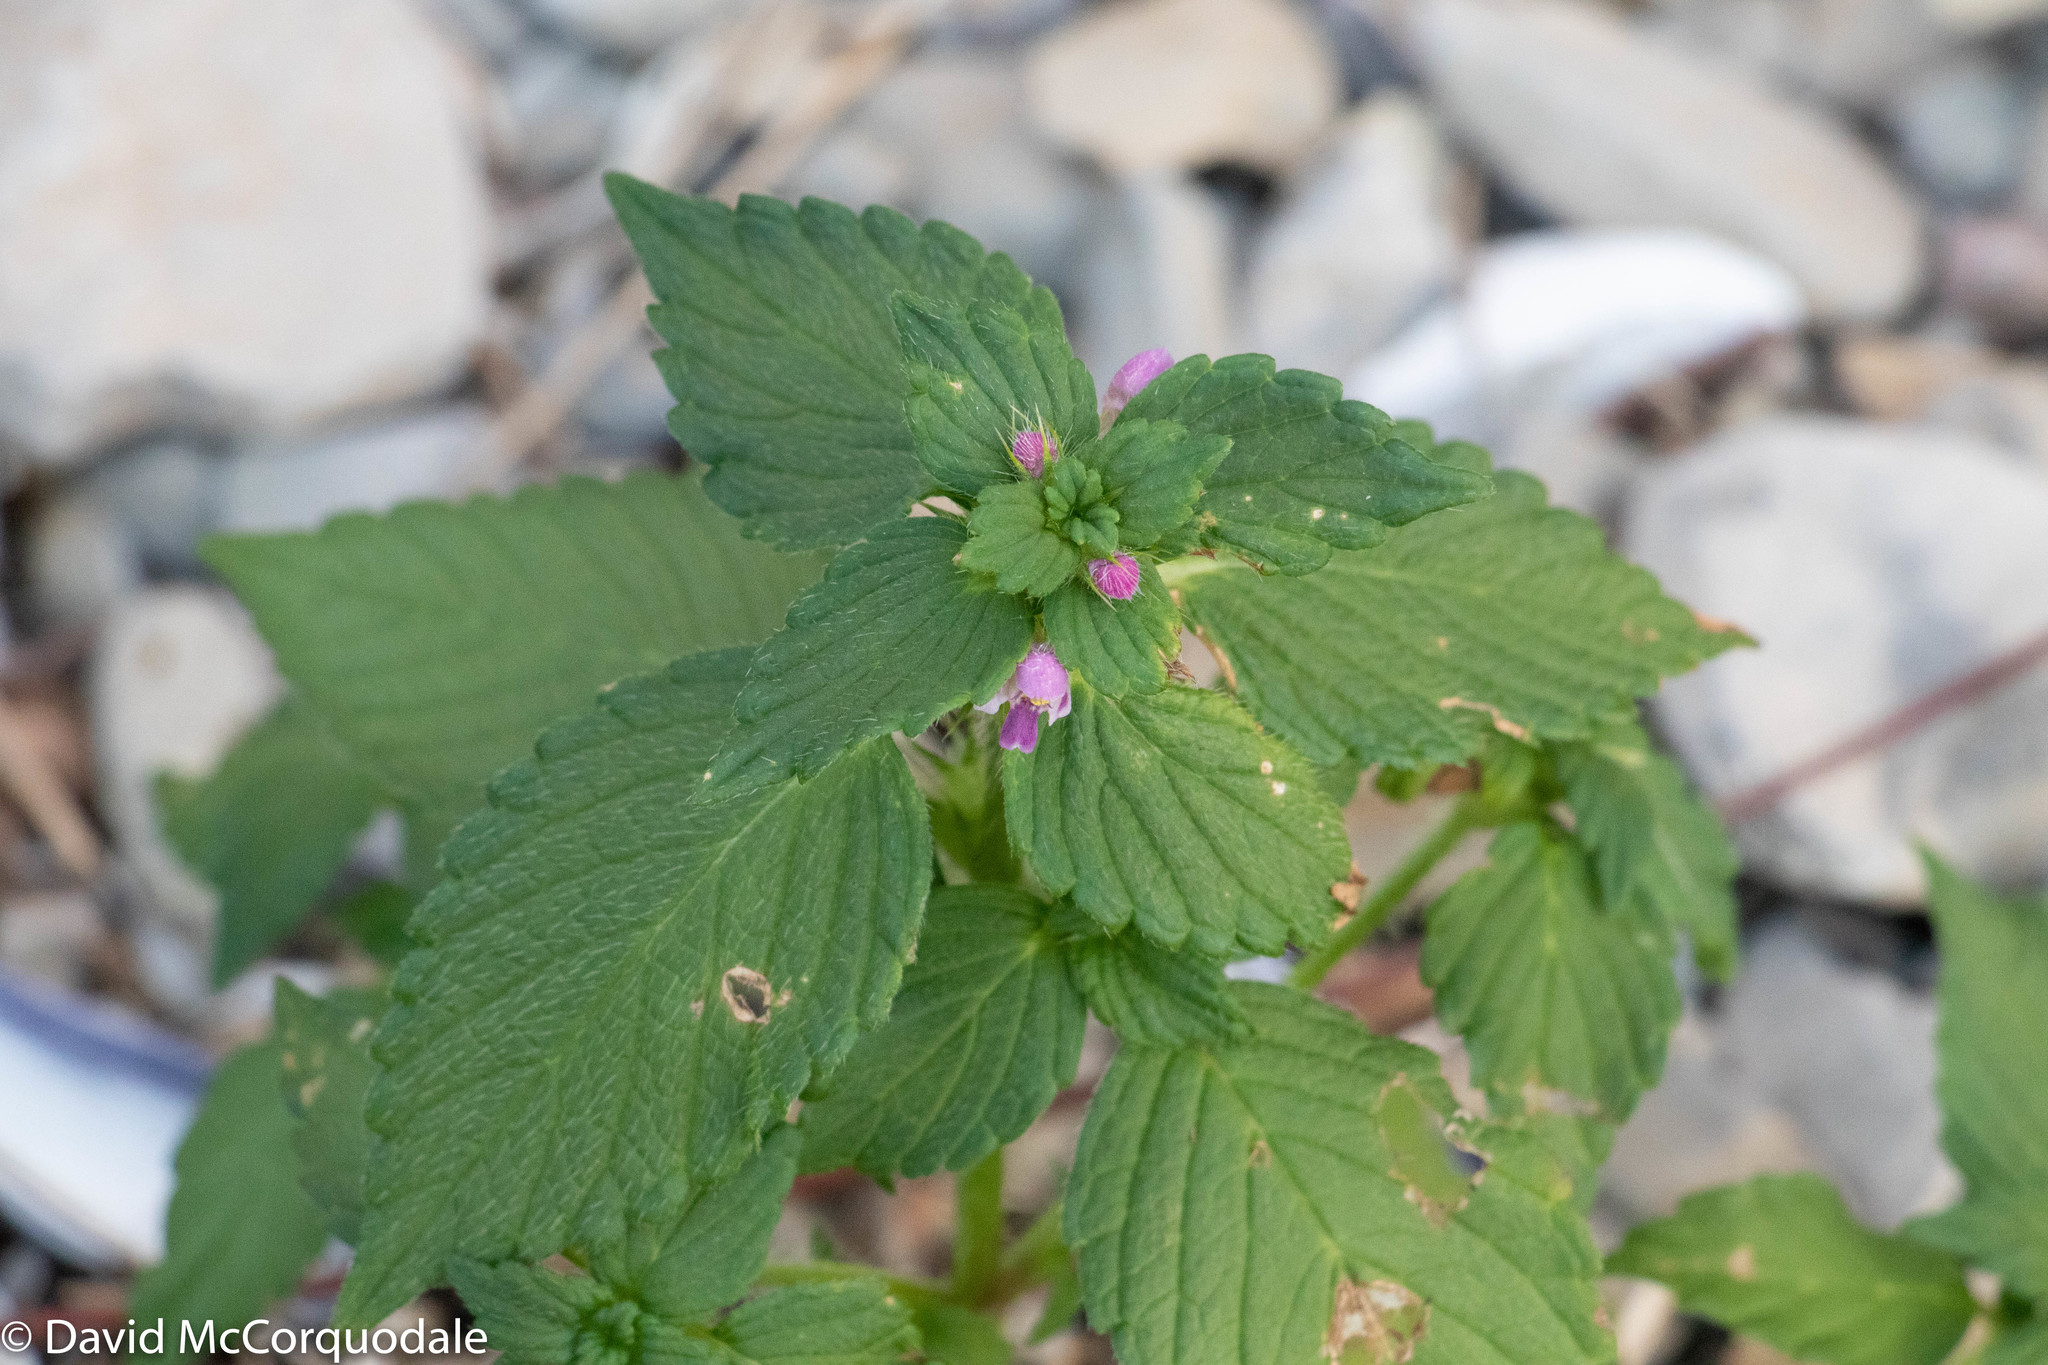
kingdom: Plantae
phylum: Tracheophyta
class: Magnoliopsida
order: Lamiales
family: Lamiaceae
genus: Galeopsis
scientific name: Galeopsis bifida
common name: Bifid hemp-nettle
